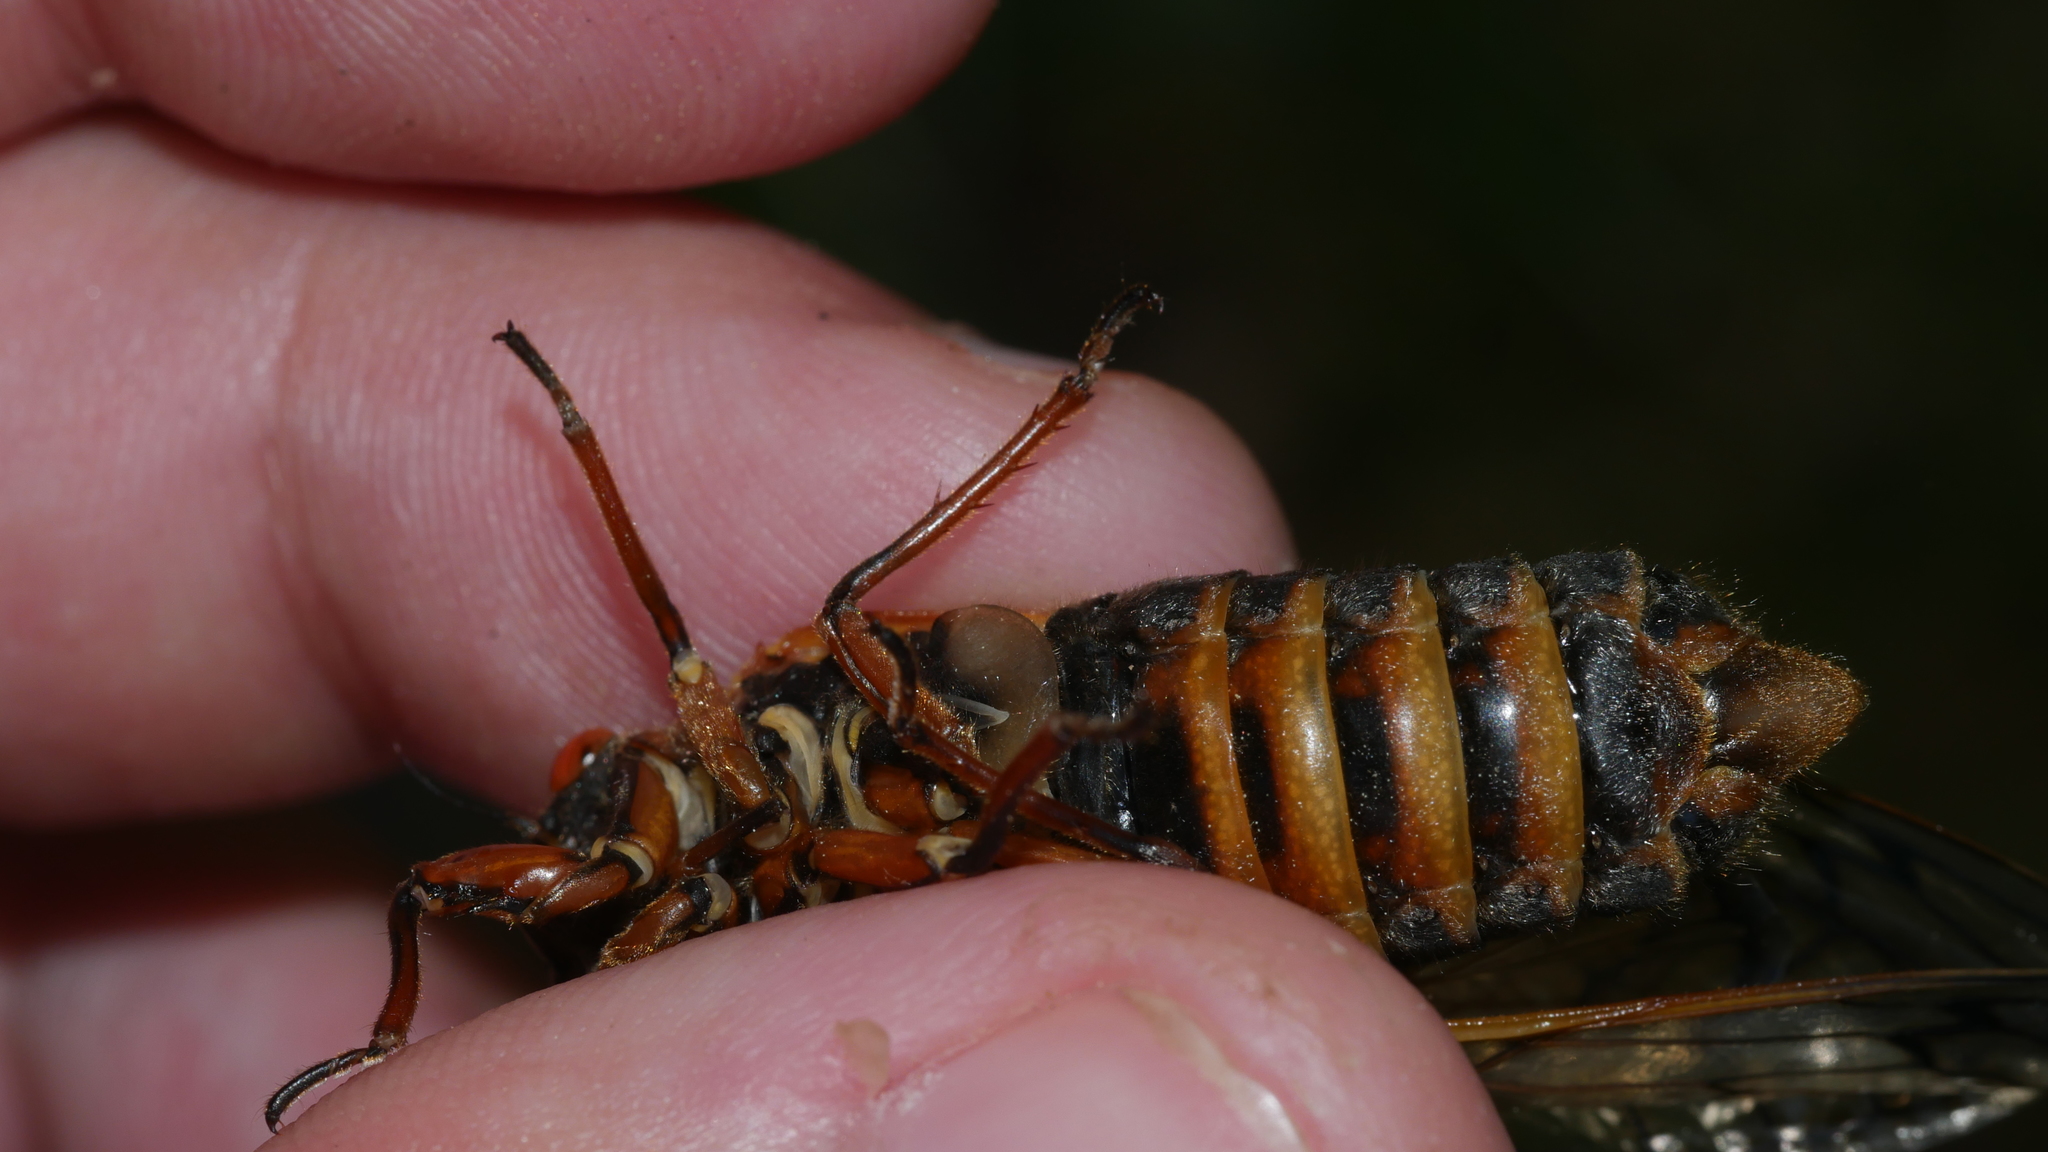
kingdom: Animalia
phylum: Arthropoda
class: Insecta
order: Hemiptera
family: Cicadidae
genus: Magicicada
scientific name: Magicicada septendecim
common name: Periodical cicada
